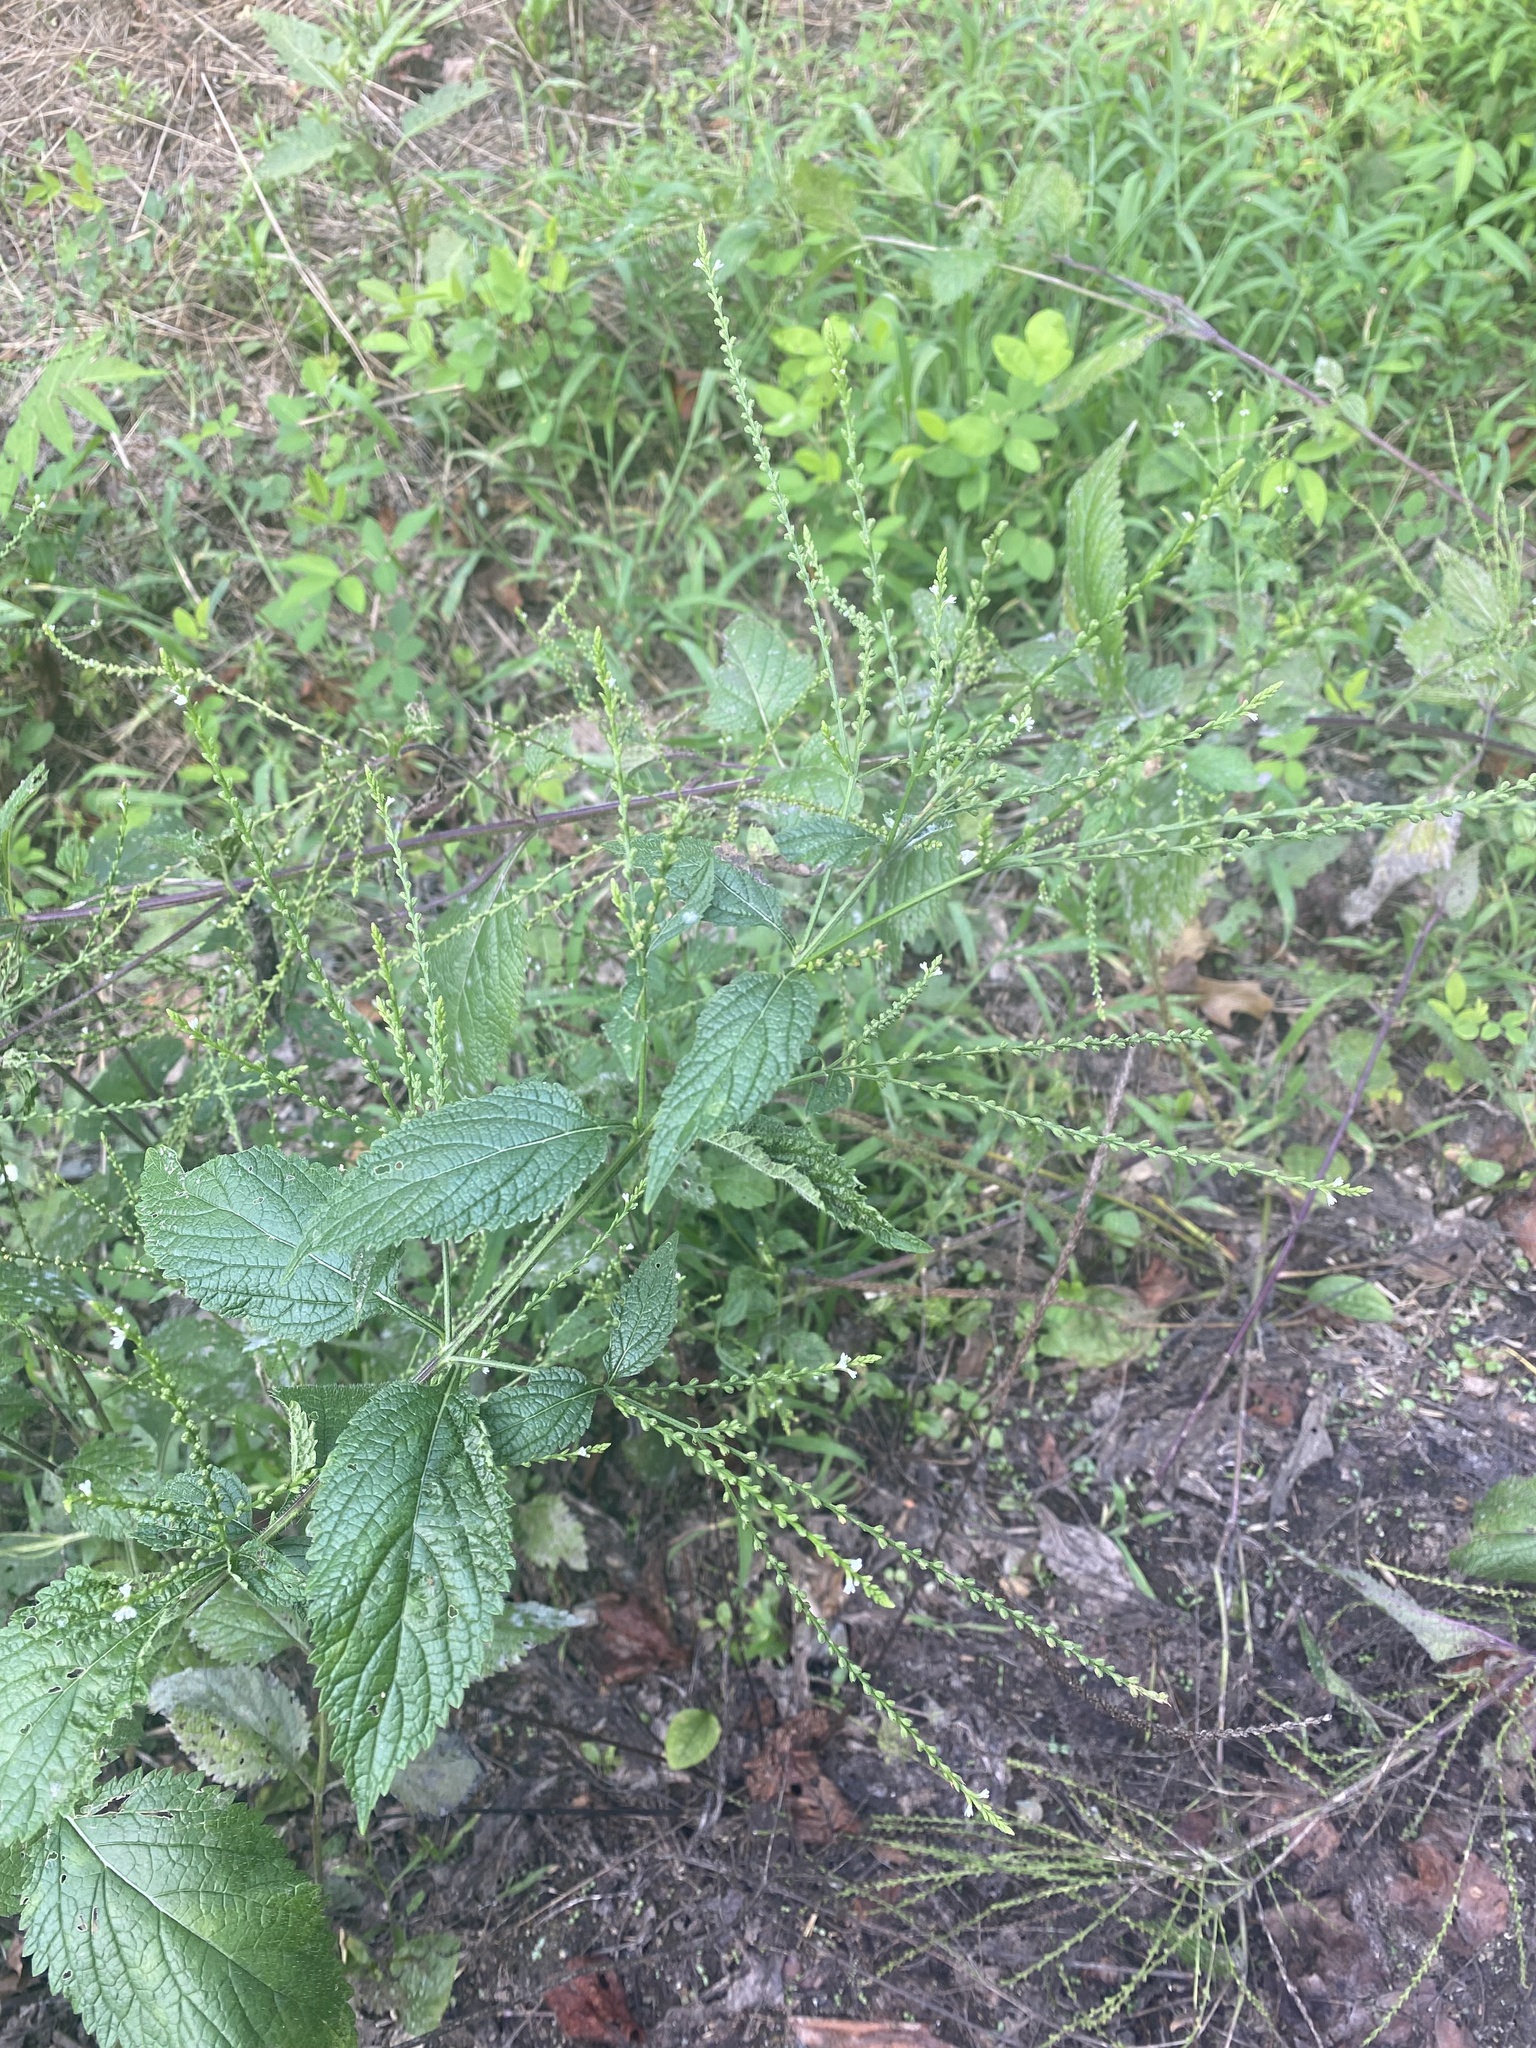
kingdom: Plantae
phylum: Tracheophyta
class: Magnoliopsida
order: Lamiales
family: Verbenaceae
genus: Verbena
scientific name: Verbena urticifolia
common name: Nettle-leaved vervain
